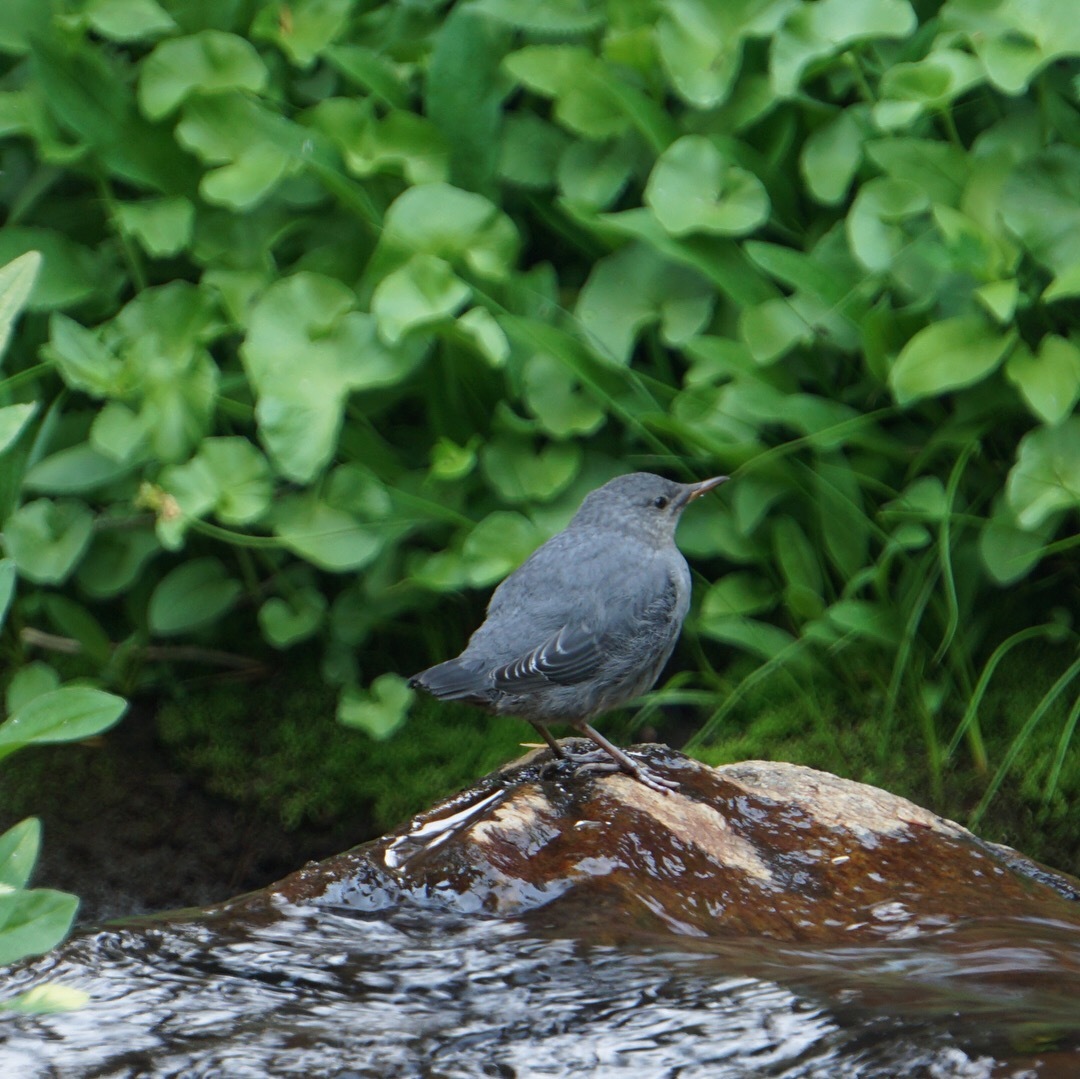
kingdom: Animalia
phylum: Chordata
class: Aves
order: Passeriformes
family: Cinclidae
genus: Cinclus
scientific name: Cinclus mexicanus
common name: American dipper
